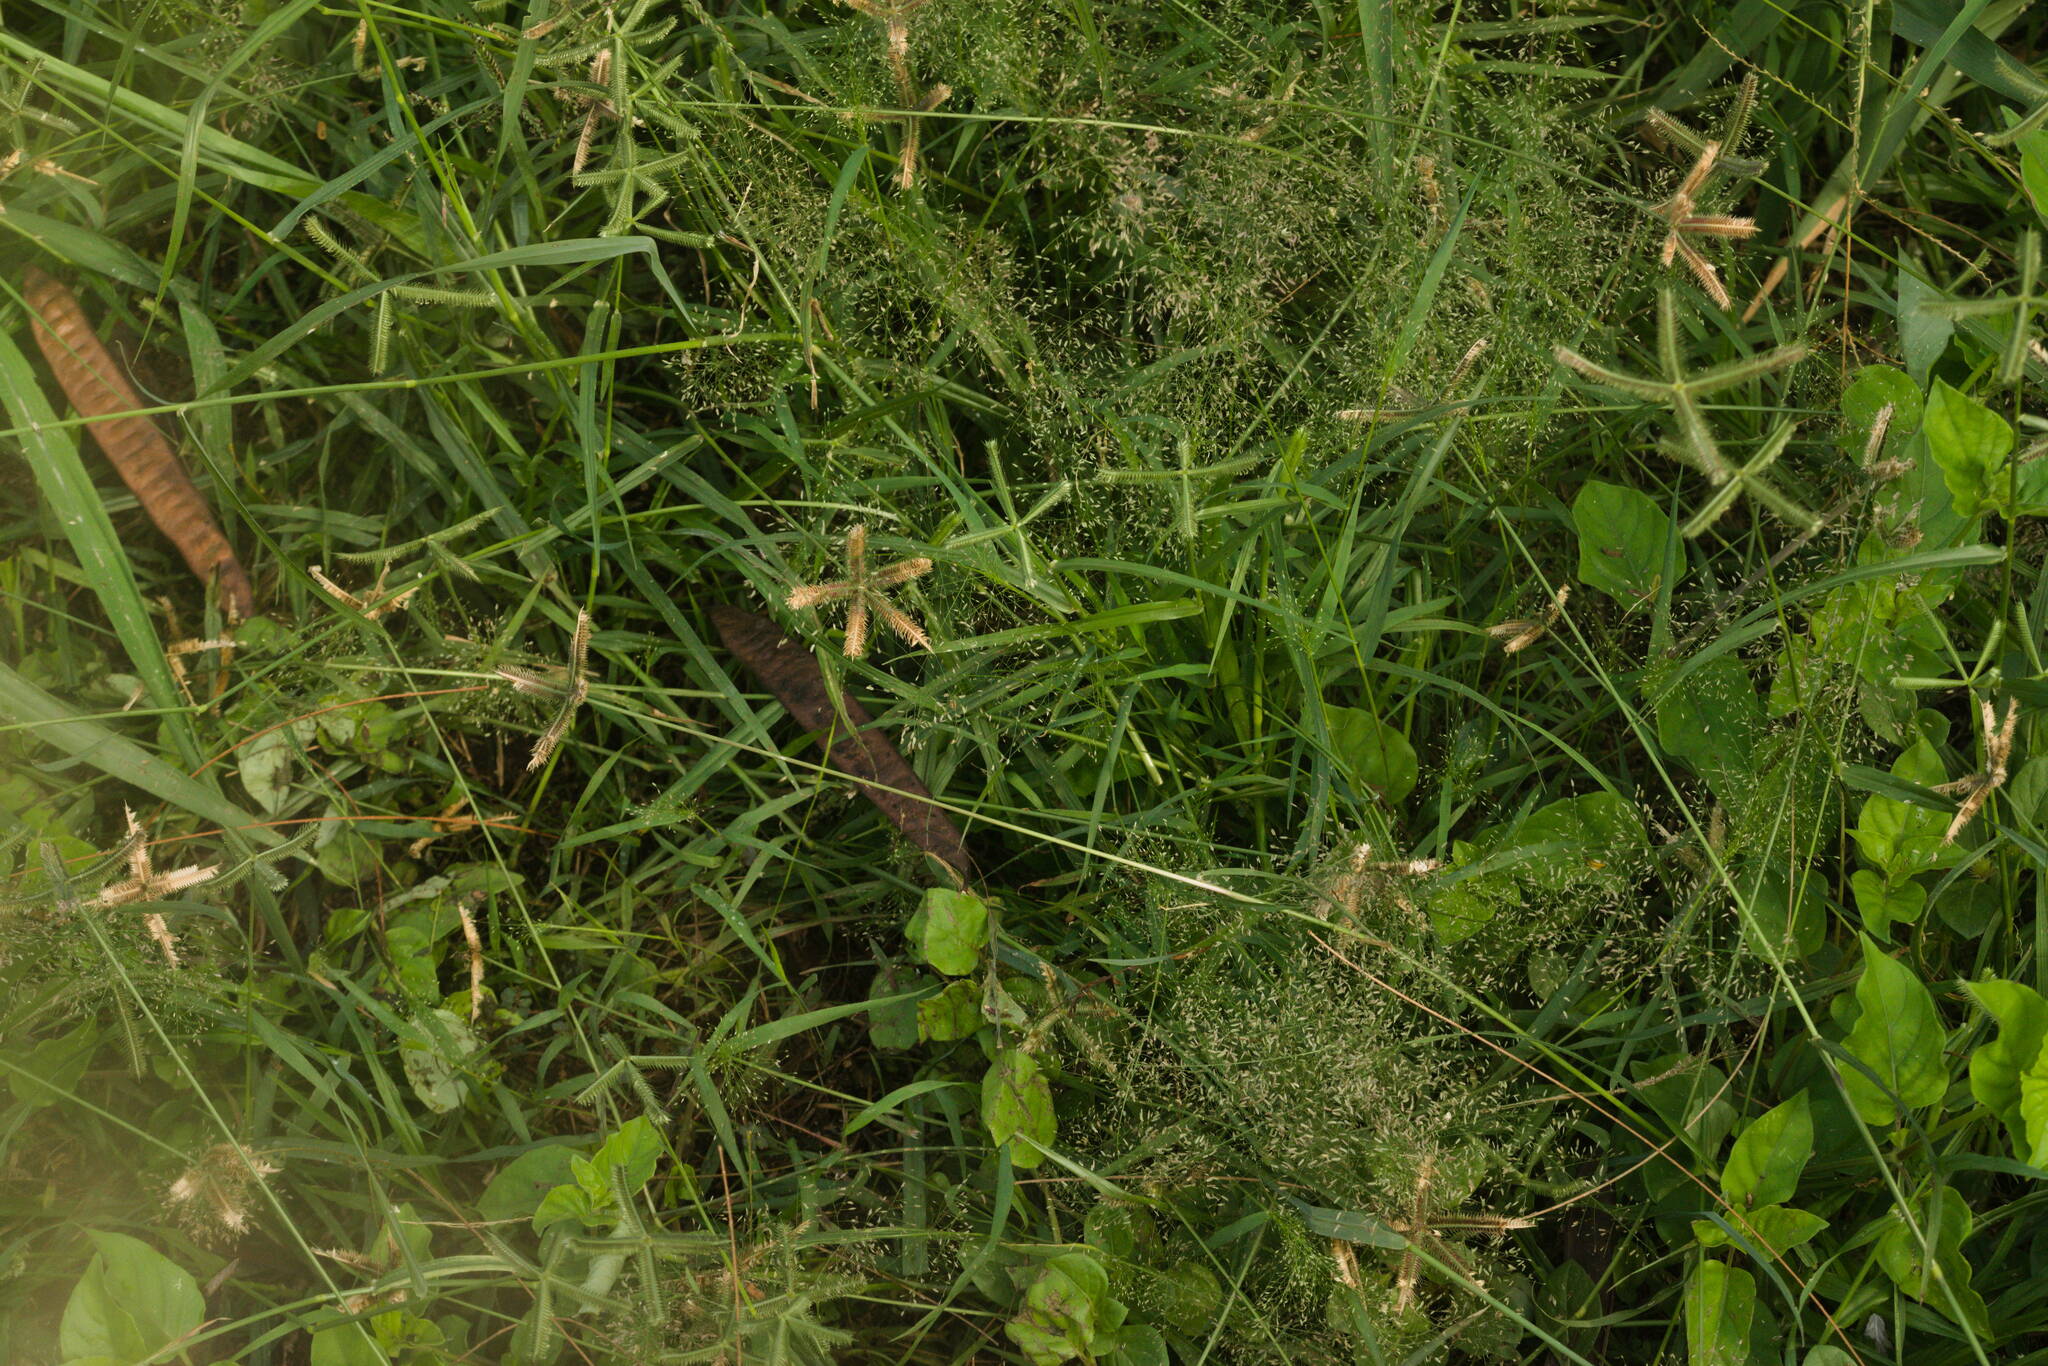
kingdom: Plantae
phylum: Tracheophyta
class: Liliopsida
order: Poales
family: Poaceae
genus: Eragrostis
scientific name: Eragrostis tenella
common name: Japanese lovegrass
